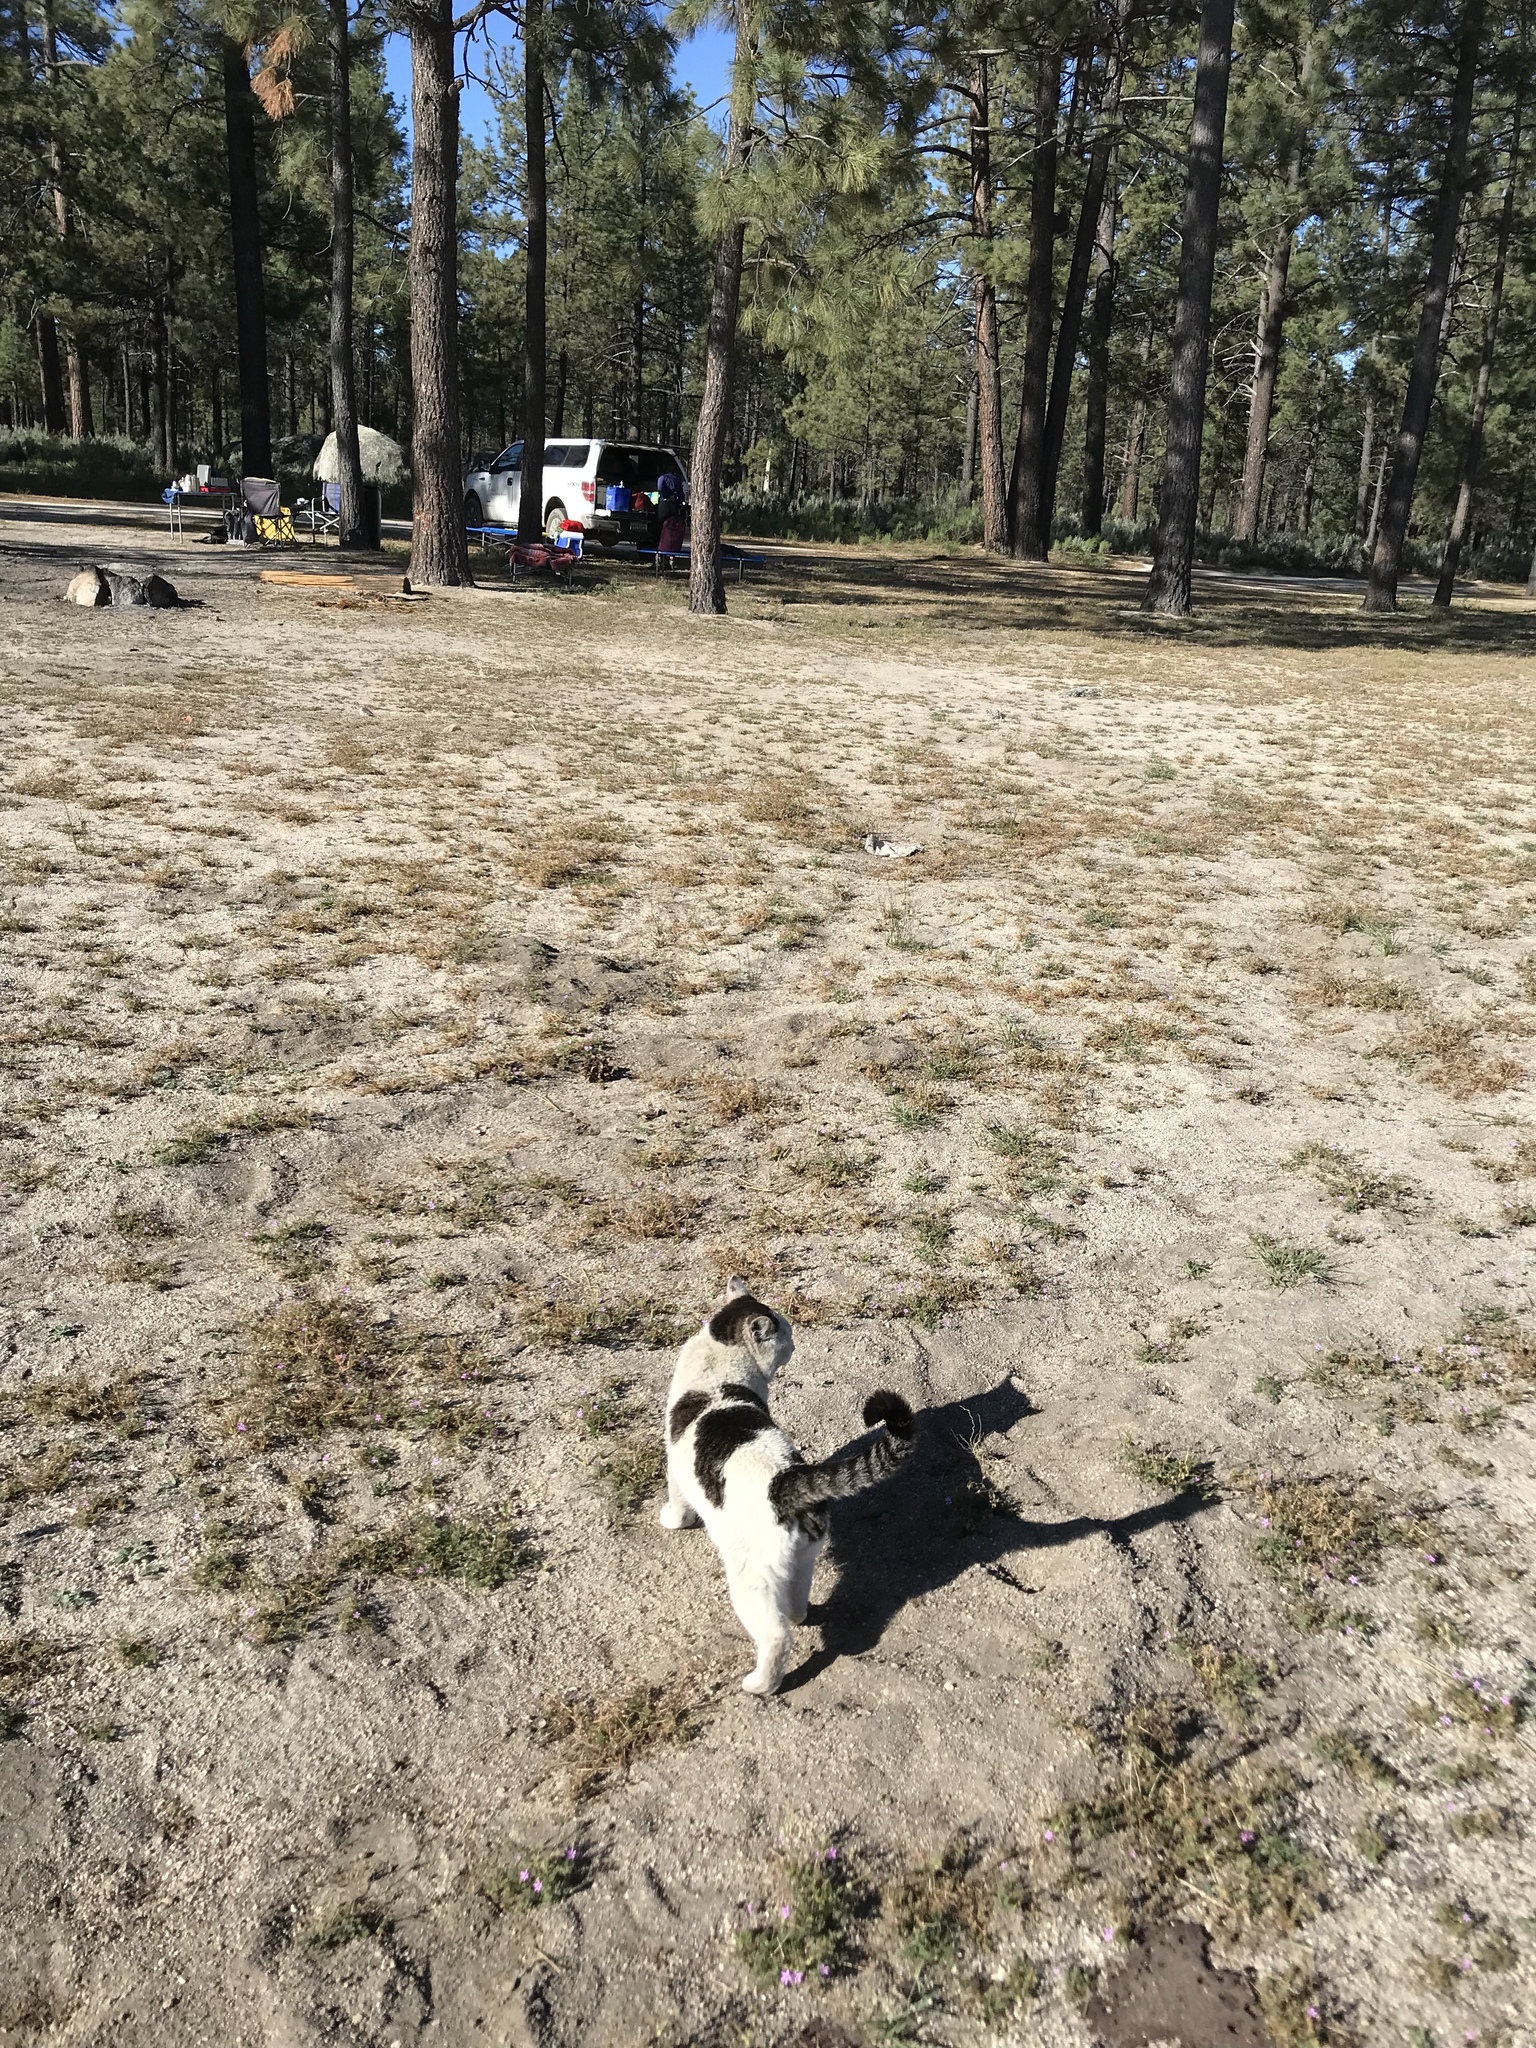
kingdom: Animalia
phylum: Chordata
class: Mammalia
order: Carnivora
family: Felidae
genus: Felis
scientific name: Felis catus
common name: Domestic cat
